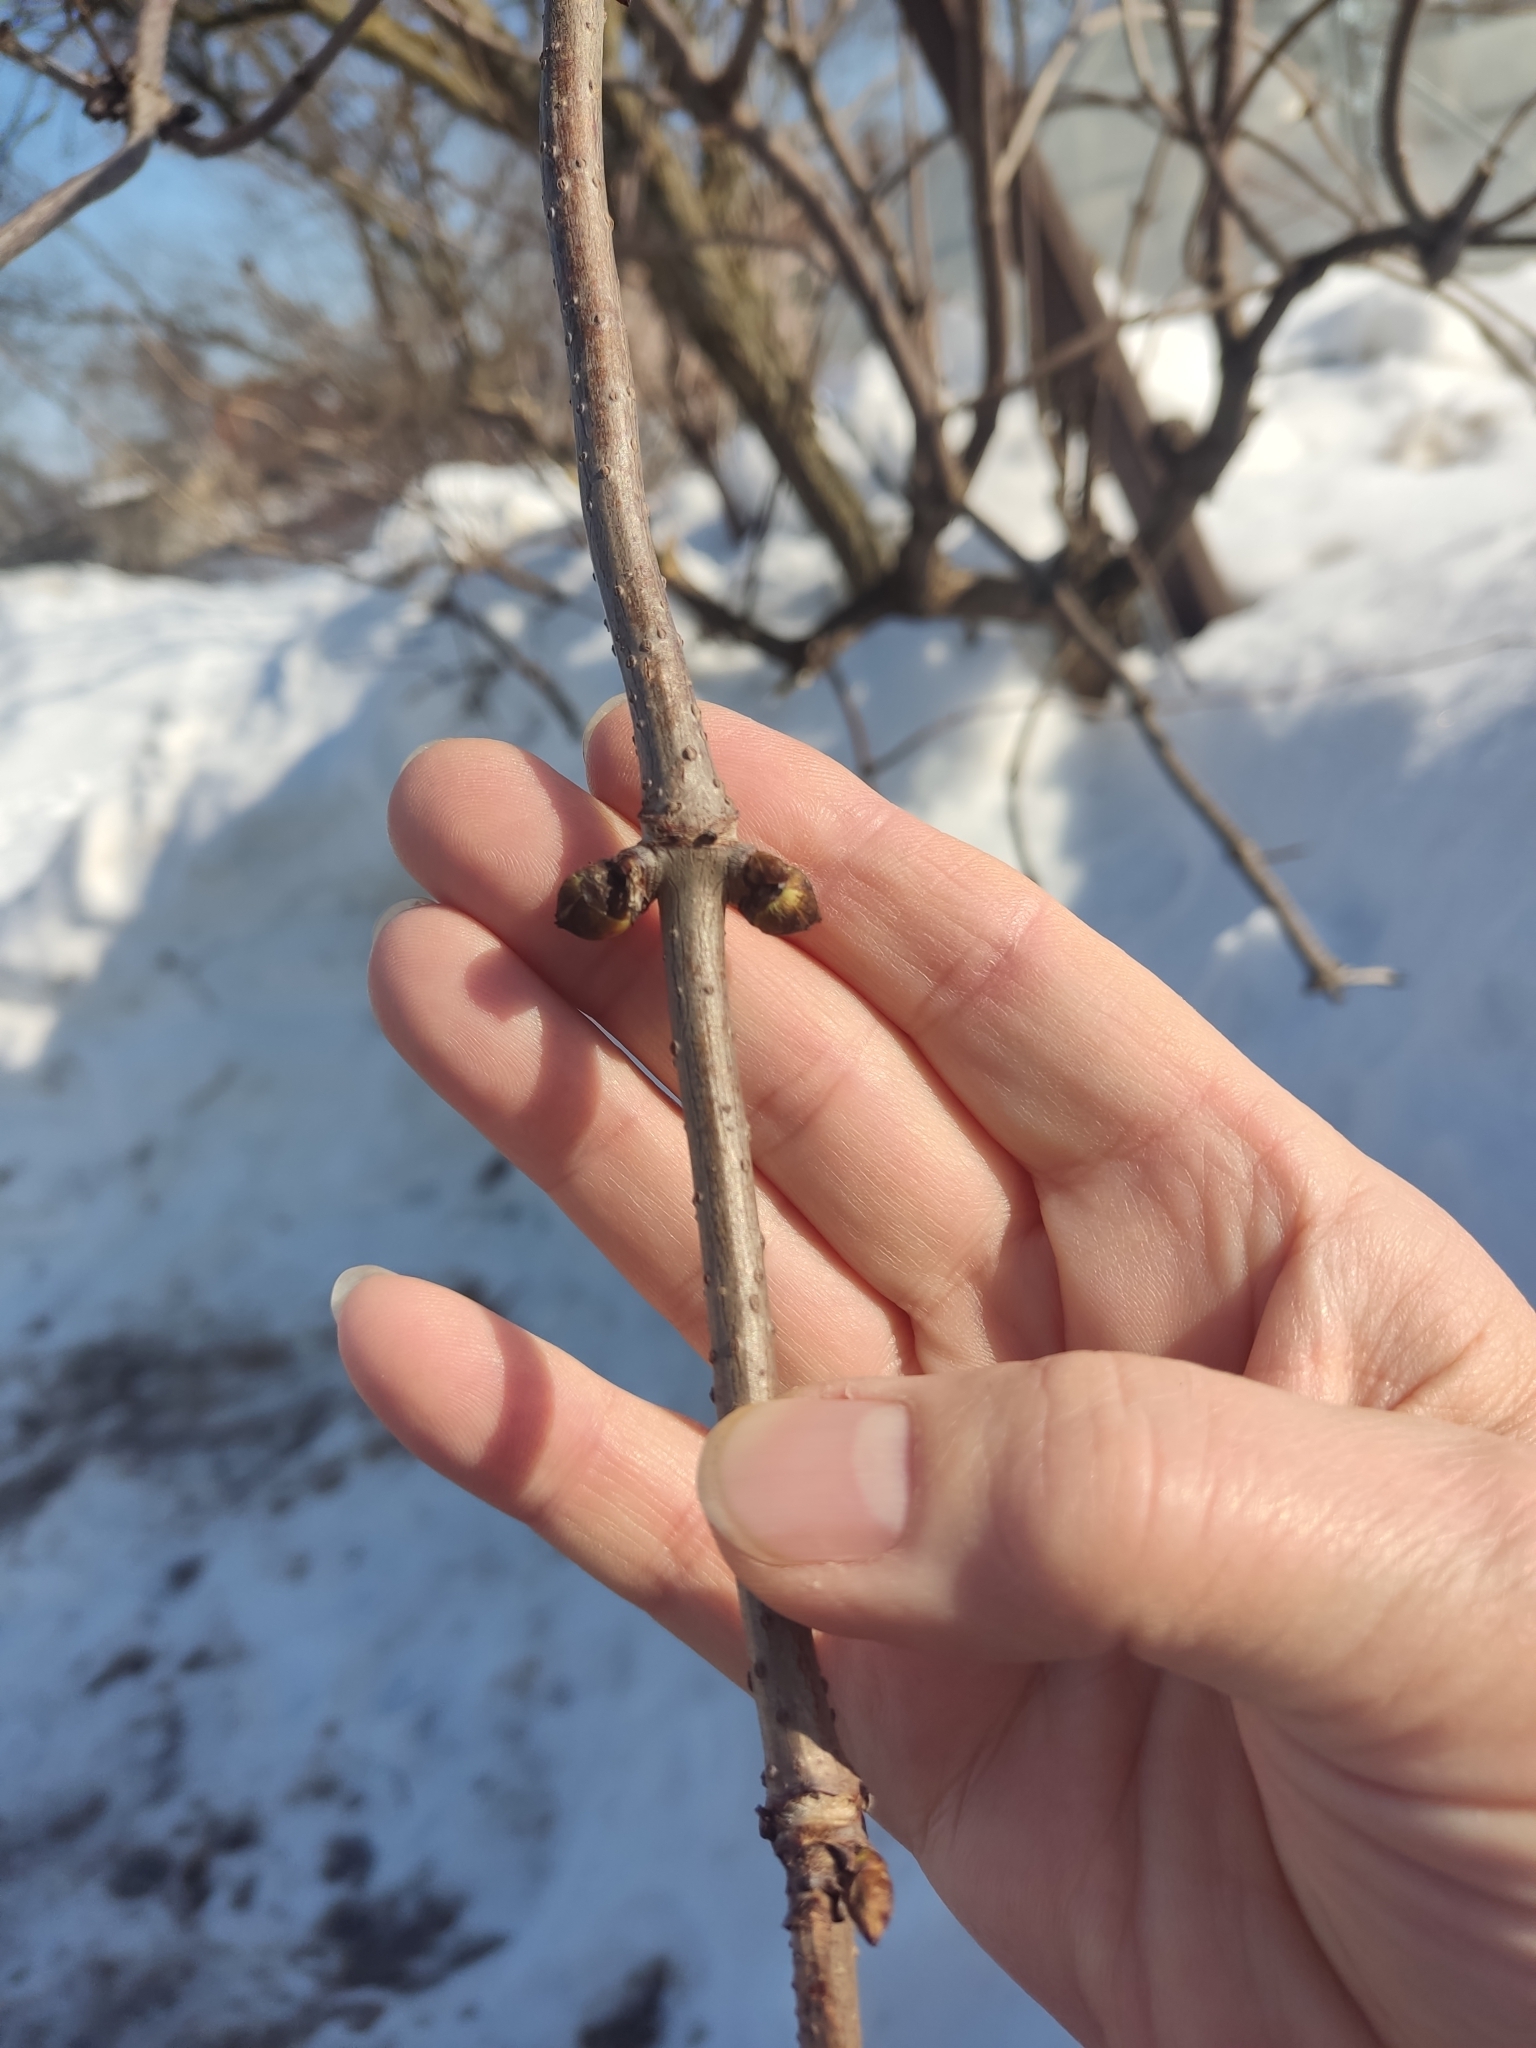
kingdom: Plantae
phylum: Tracheophyta
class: Magnoliopsida
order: Dipsacales
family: Viburnaceae
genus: Sambucus
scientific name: Sambucus racemosa
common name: Red-berried elder
